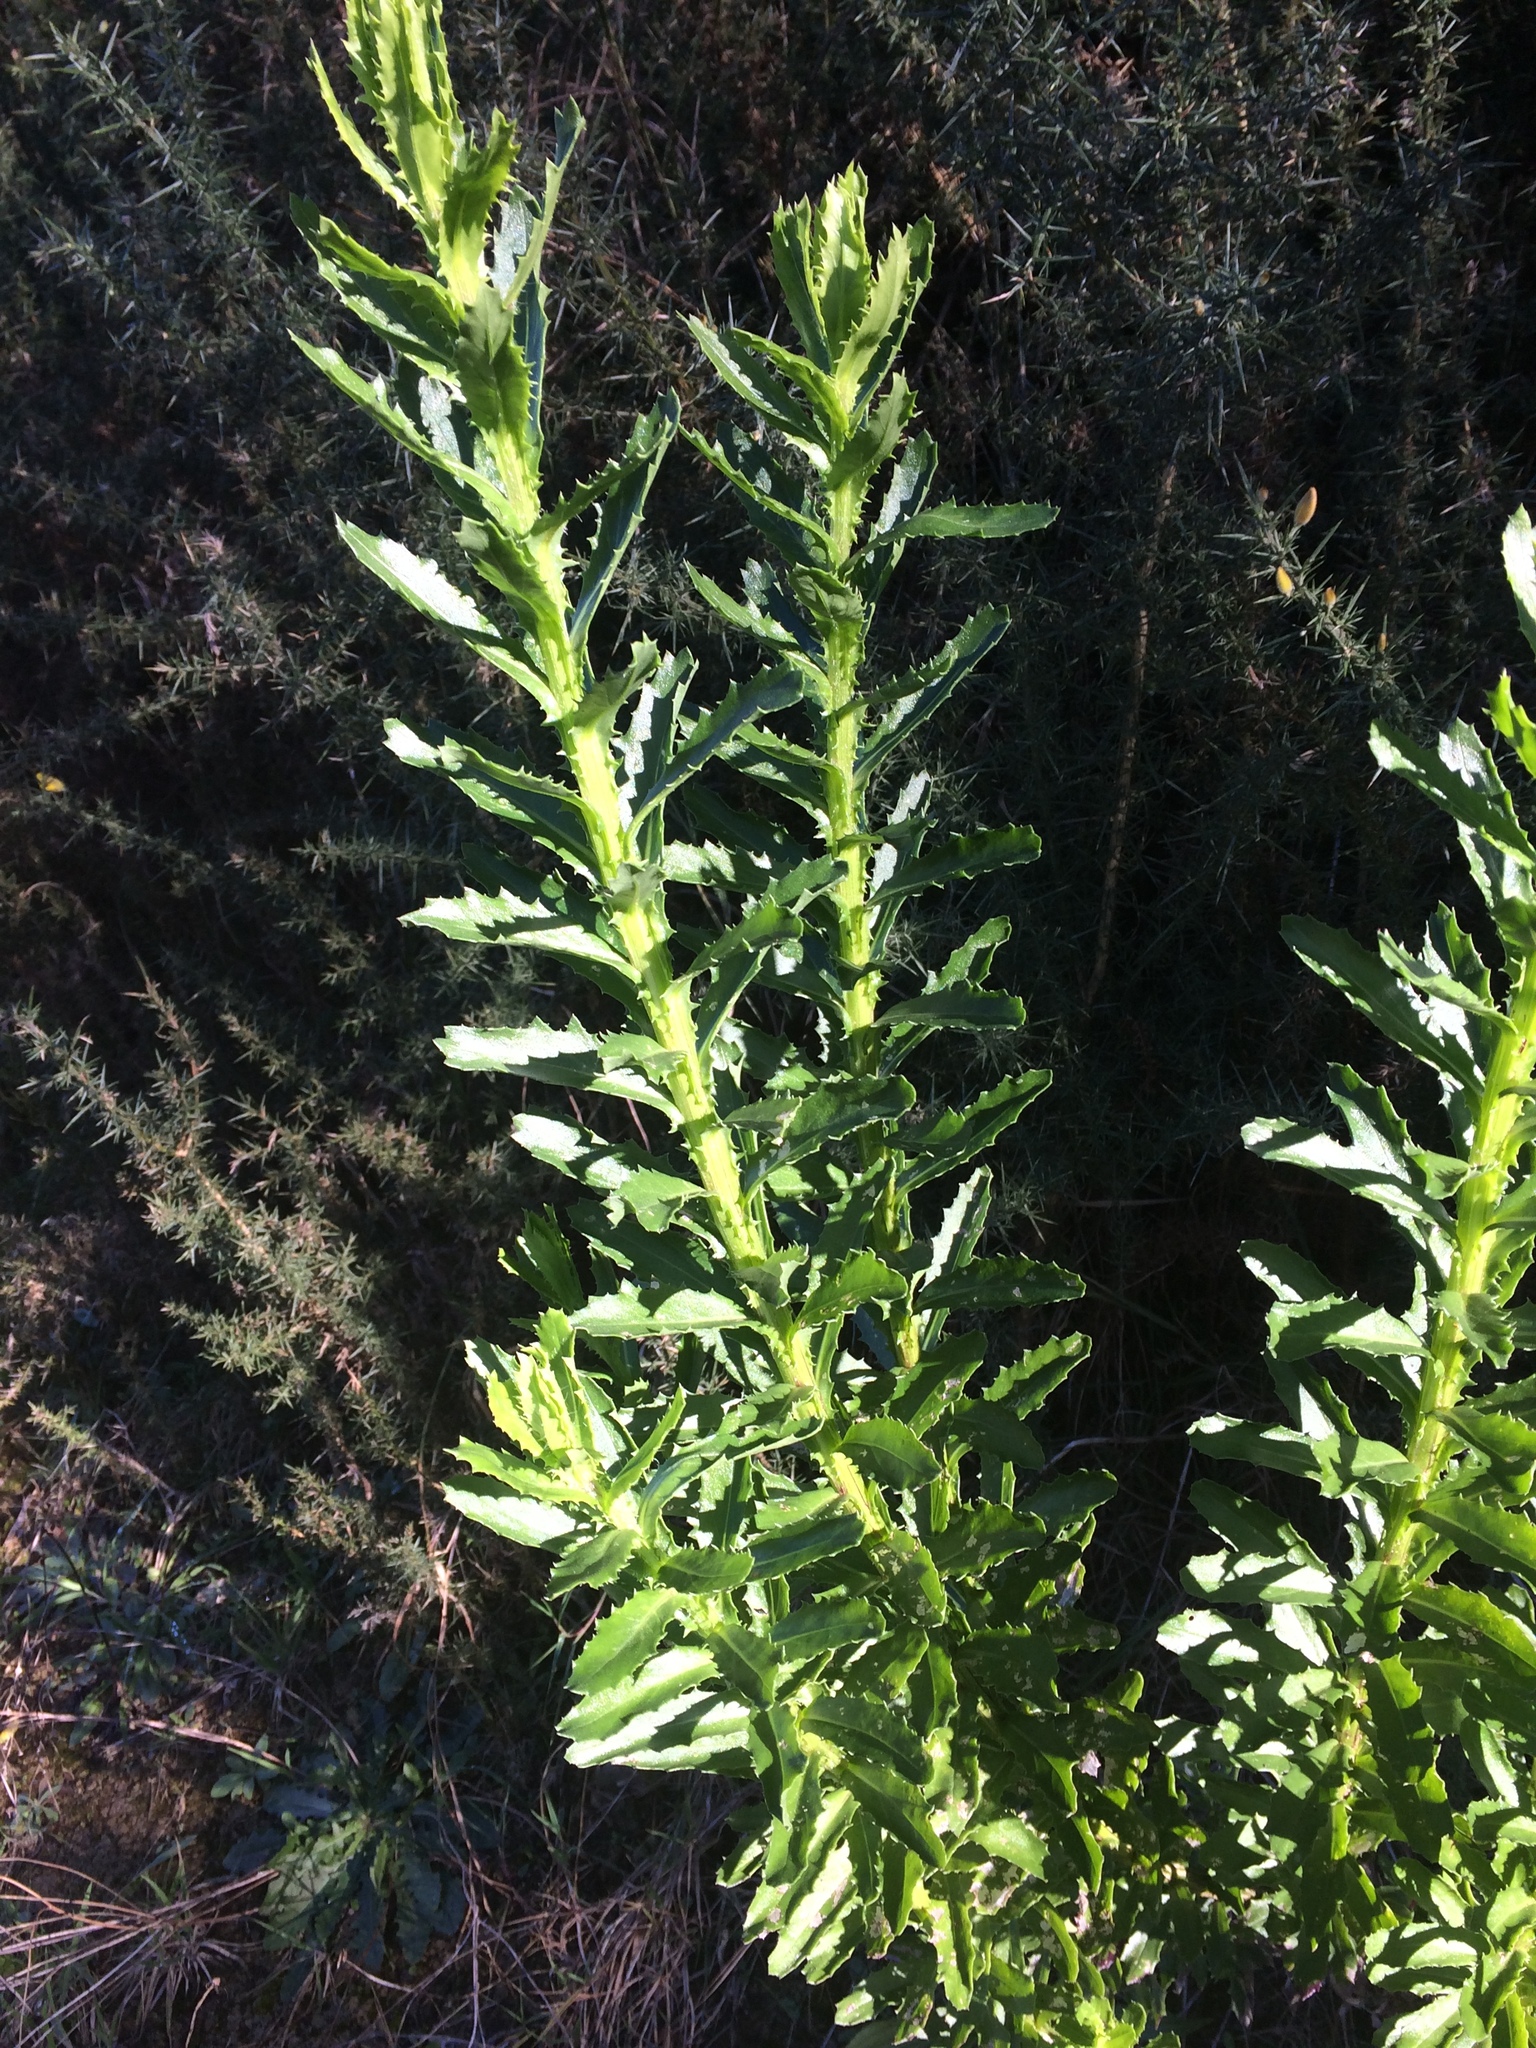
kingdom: Plantae
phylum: Tracheophyta
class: Magnoliopsida
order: Asterales
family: Asteraceae
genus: Senecio
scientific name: Senecio glastifolius
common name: Woad-leaved ragwort
